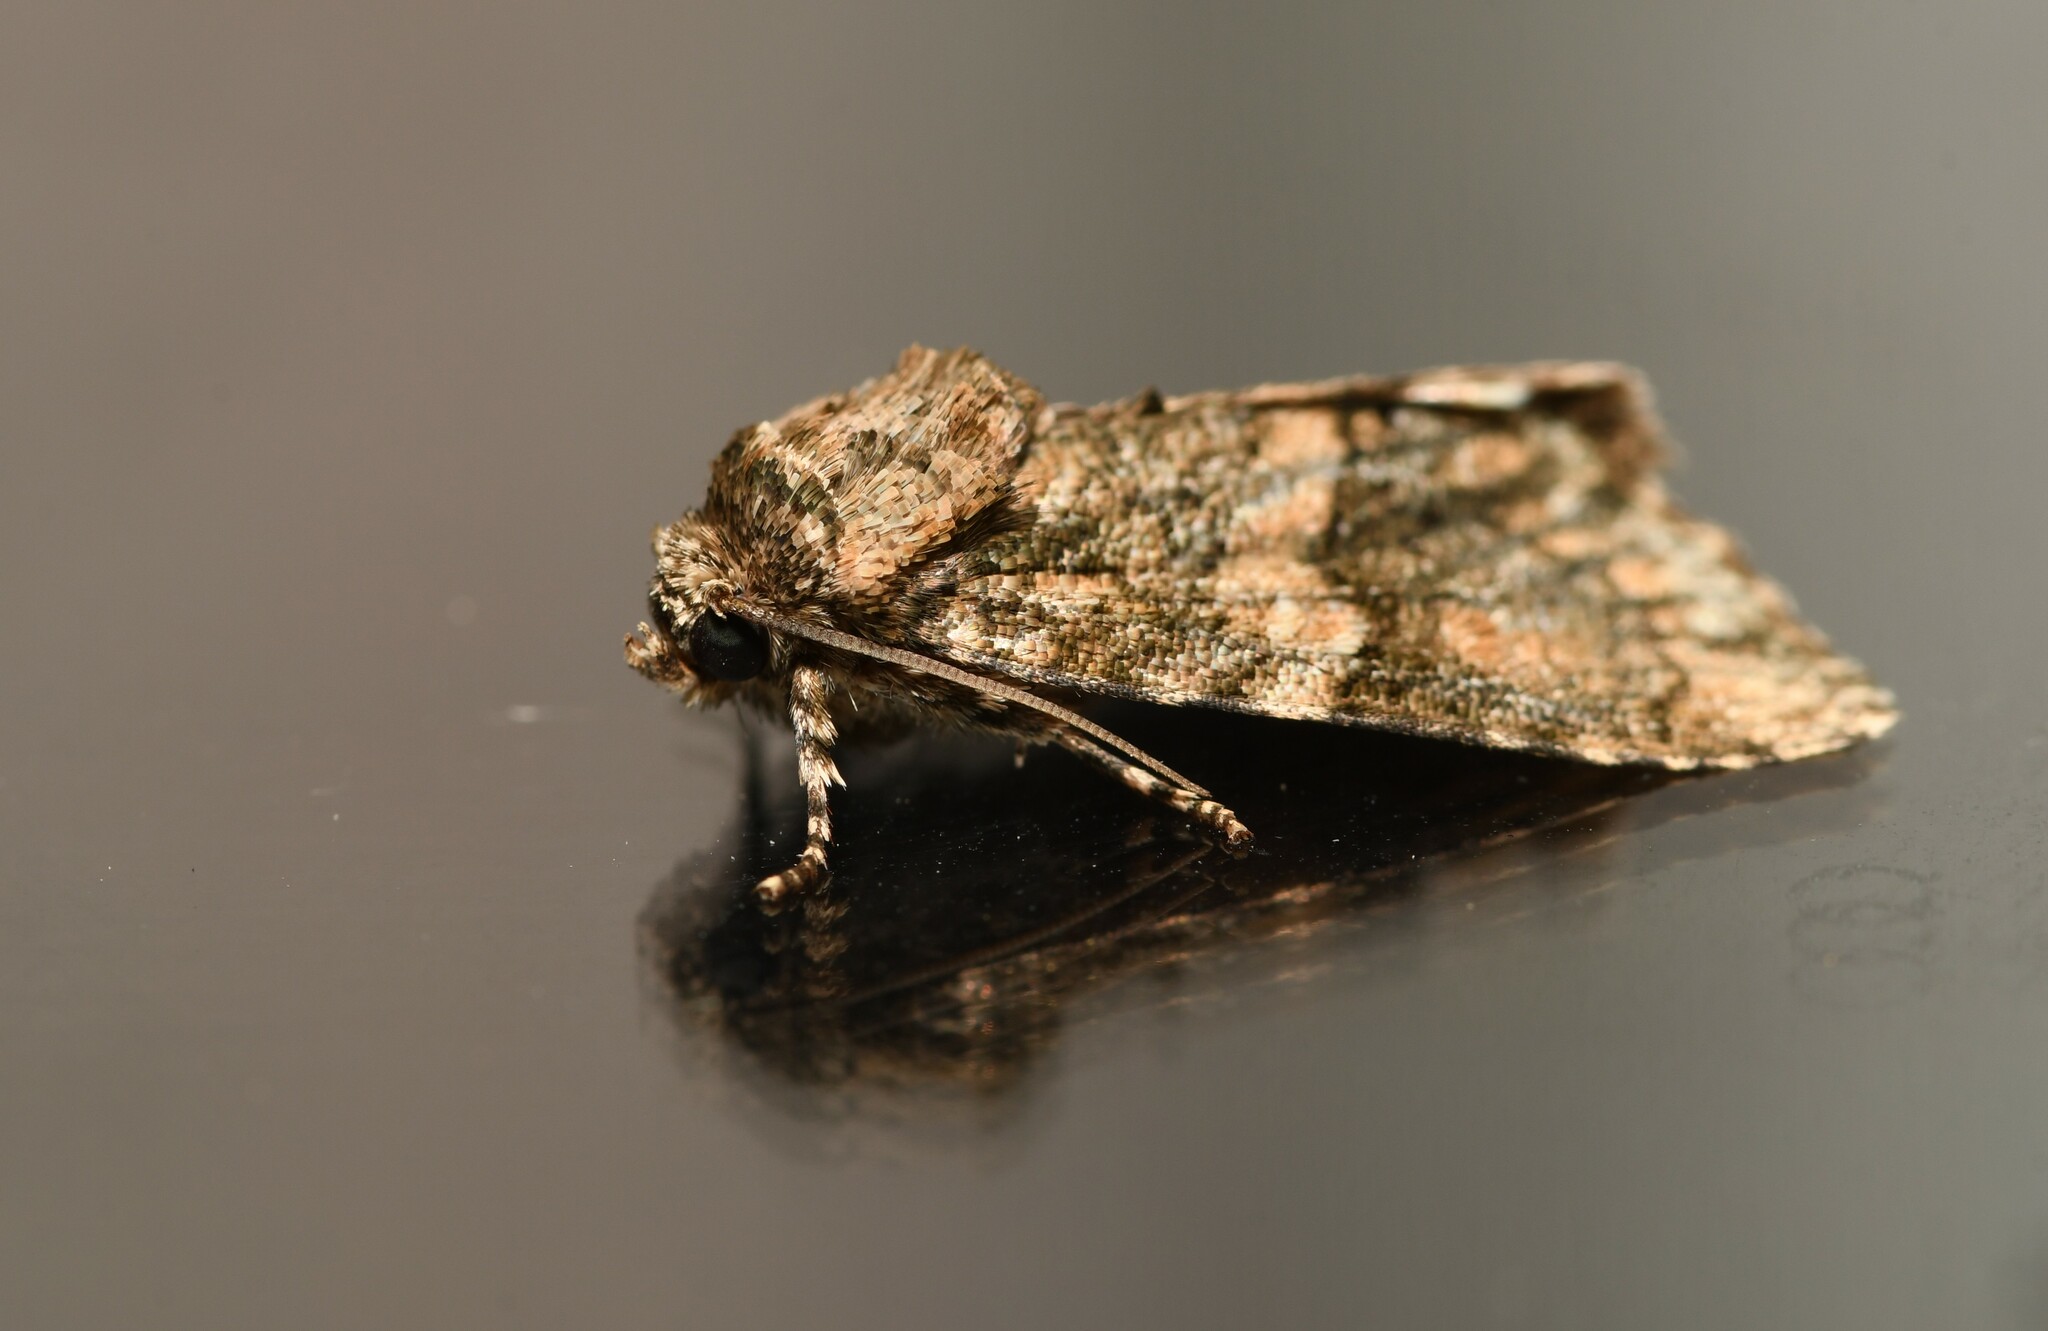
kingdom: Animalia
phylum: Arthropoda
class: Insecta
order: Lepidoptera
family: Noctuidae
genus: Craniophora
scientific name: Craniophora pontica
